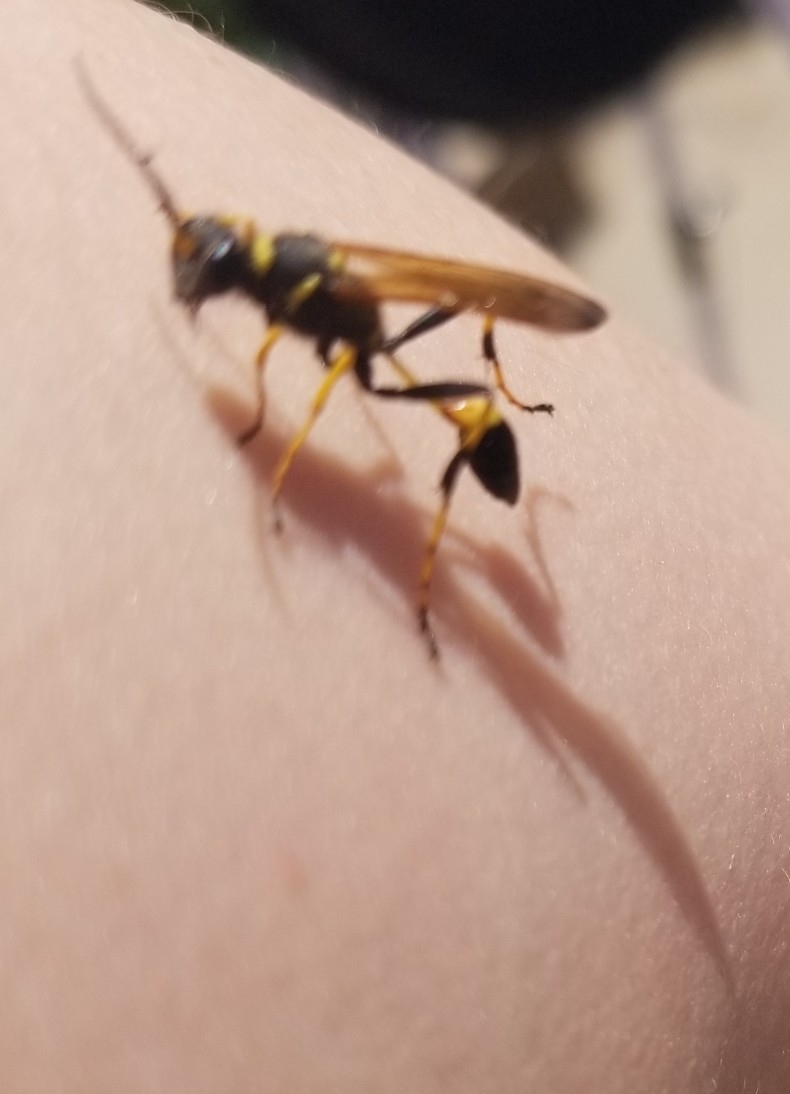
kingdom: Animalia
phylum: Arthropoda
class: Insecta
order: Hymenoptera
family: Sphecidae
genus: Sceliphron
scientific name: Sceliphron caementarium
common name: Mud dauber
